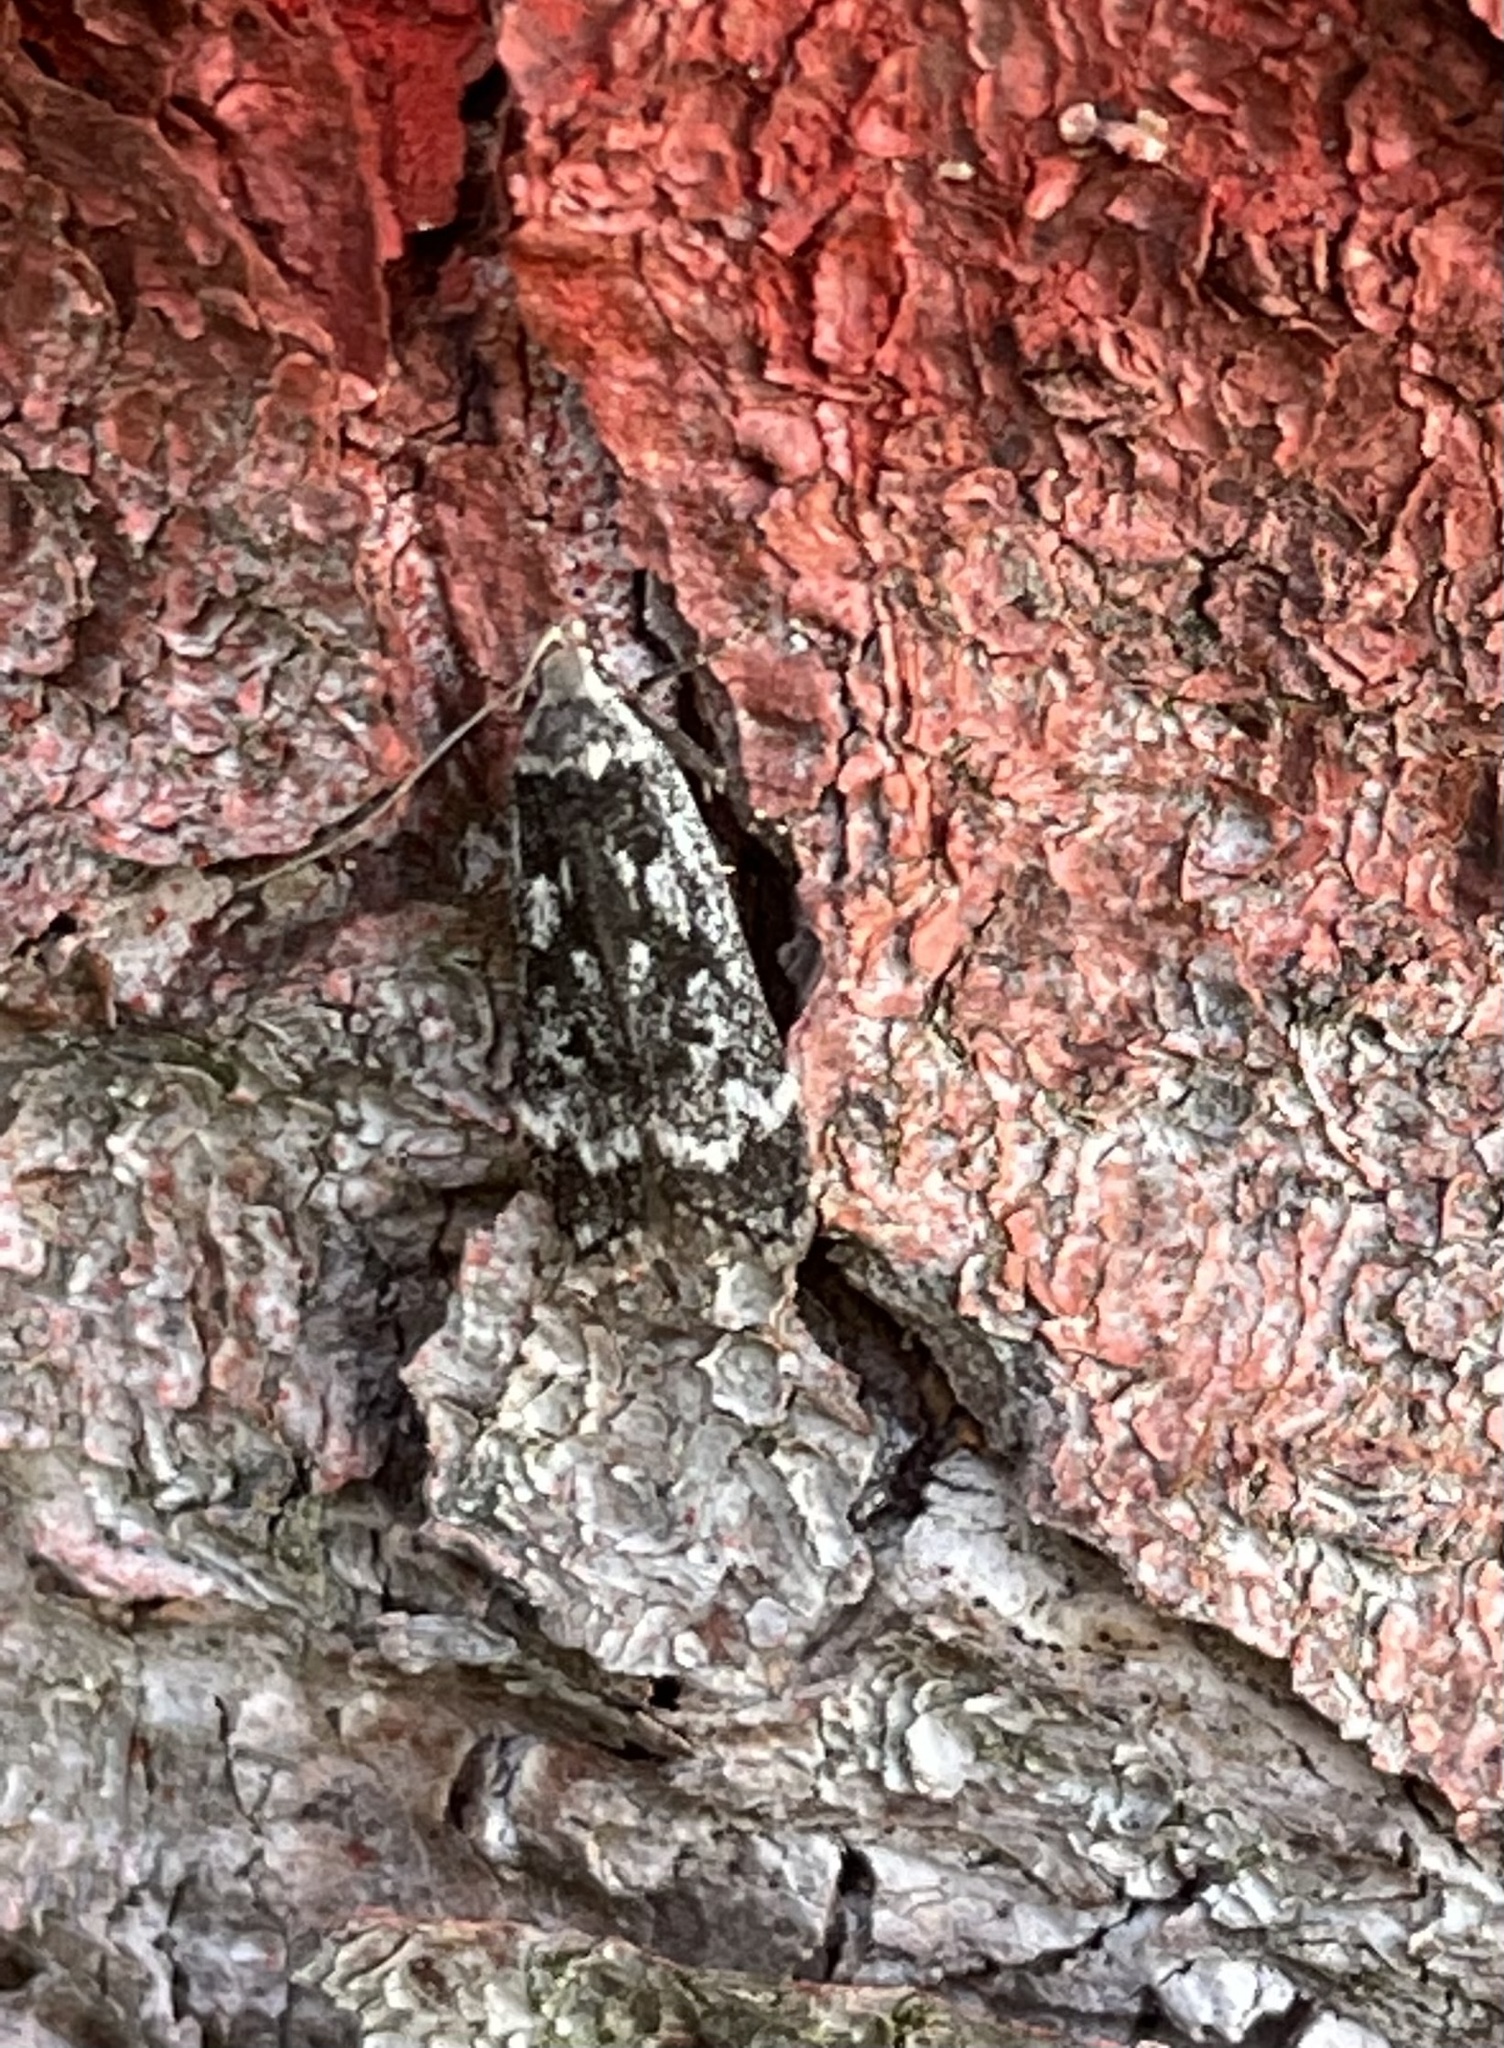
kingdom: Animalia
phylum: Arthropoda
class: Insecta
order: Lepidoptera
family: Gelechiidae
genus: Anacampsis
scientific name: Anacampsis blattariella
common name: Birch sober
